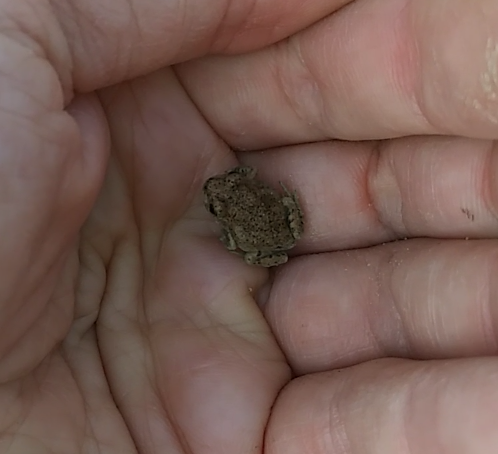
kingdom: Animalia
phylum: Chordata
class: Amphibia
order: Anura
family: Scaphiopodidae
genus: Spea
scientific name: Spea multiplicata
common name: Mexican spadefoot
